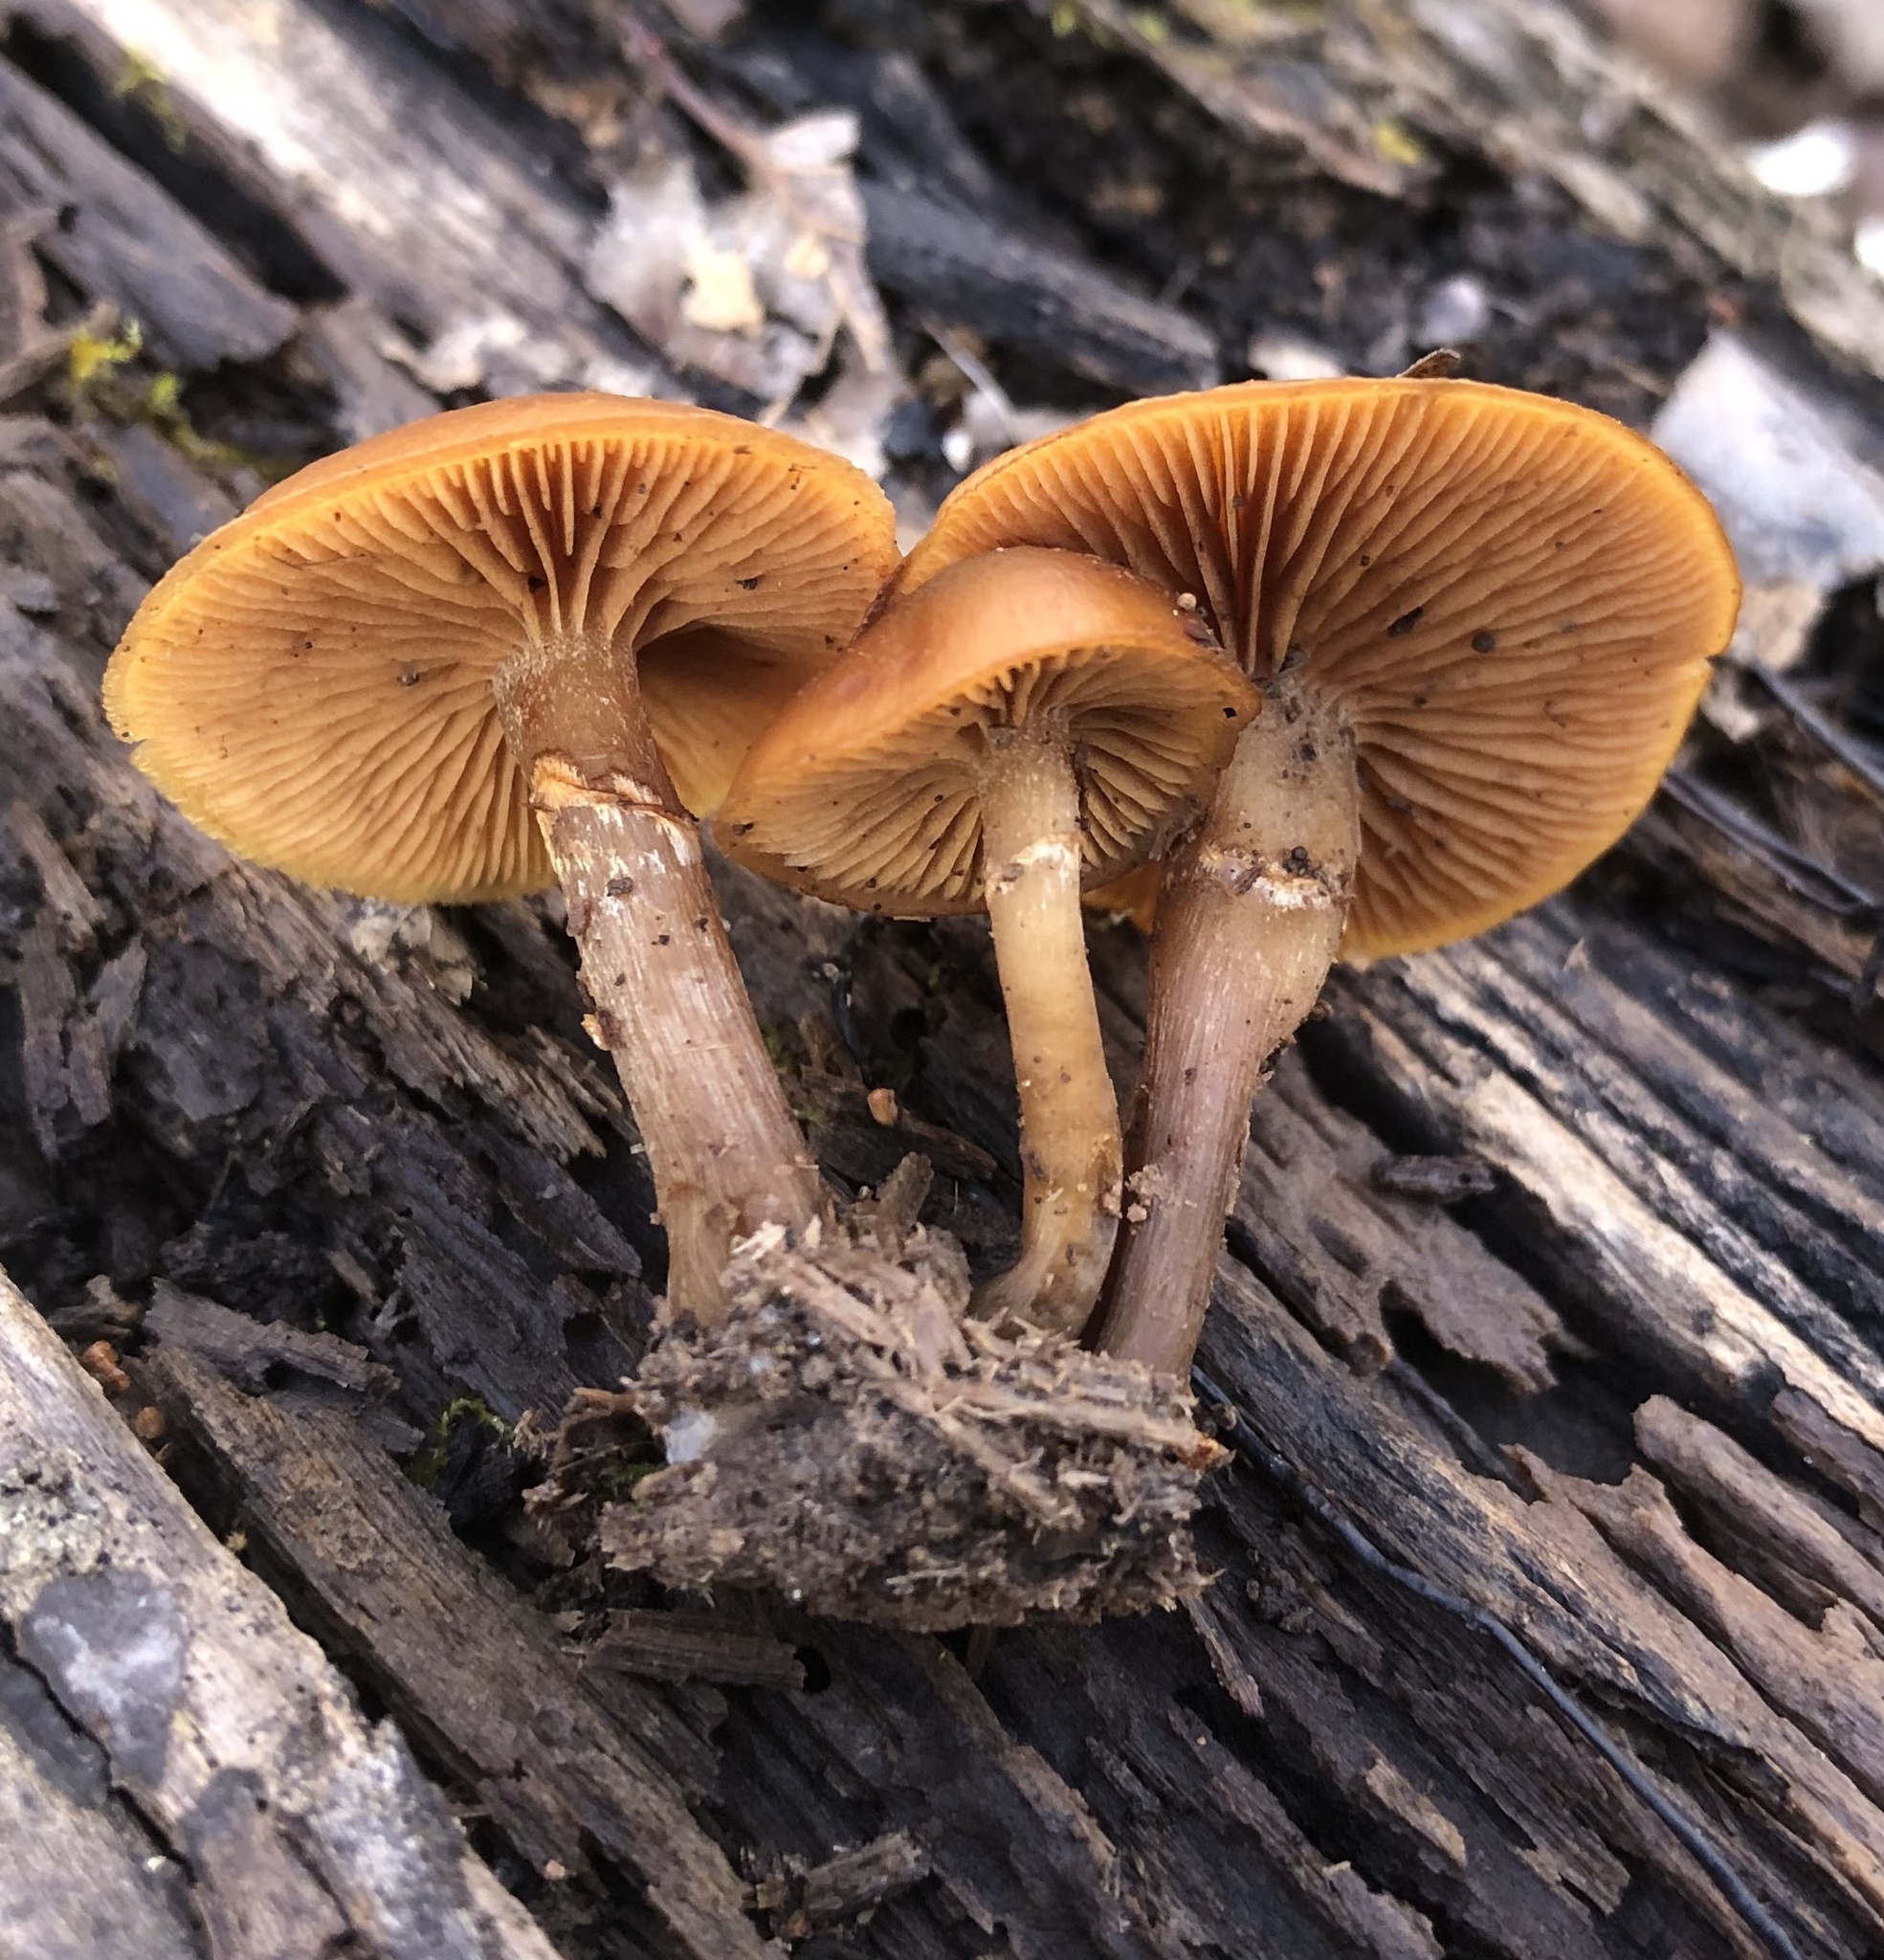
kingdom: Fungi
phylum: Basidiomycota
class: Agaricomycetes
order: Agaricales
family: Hymenogastraceae
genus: Galerina
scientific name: Galerina marginata
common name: Funeral bell
